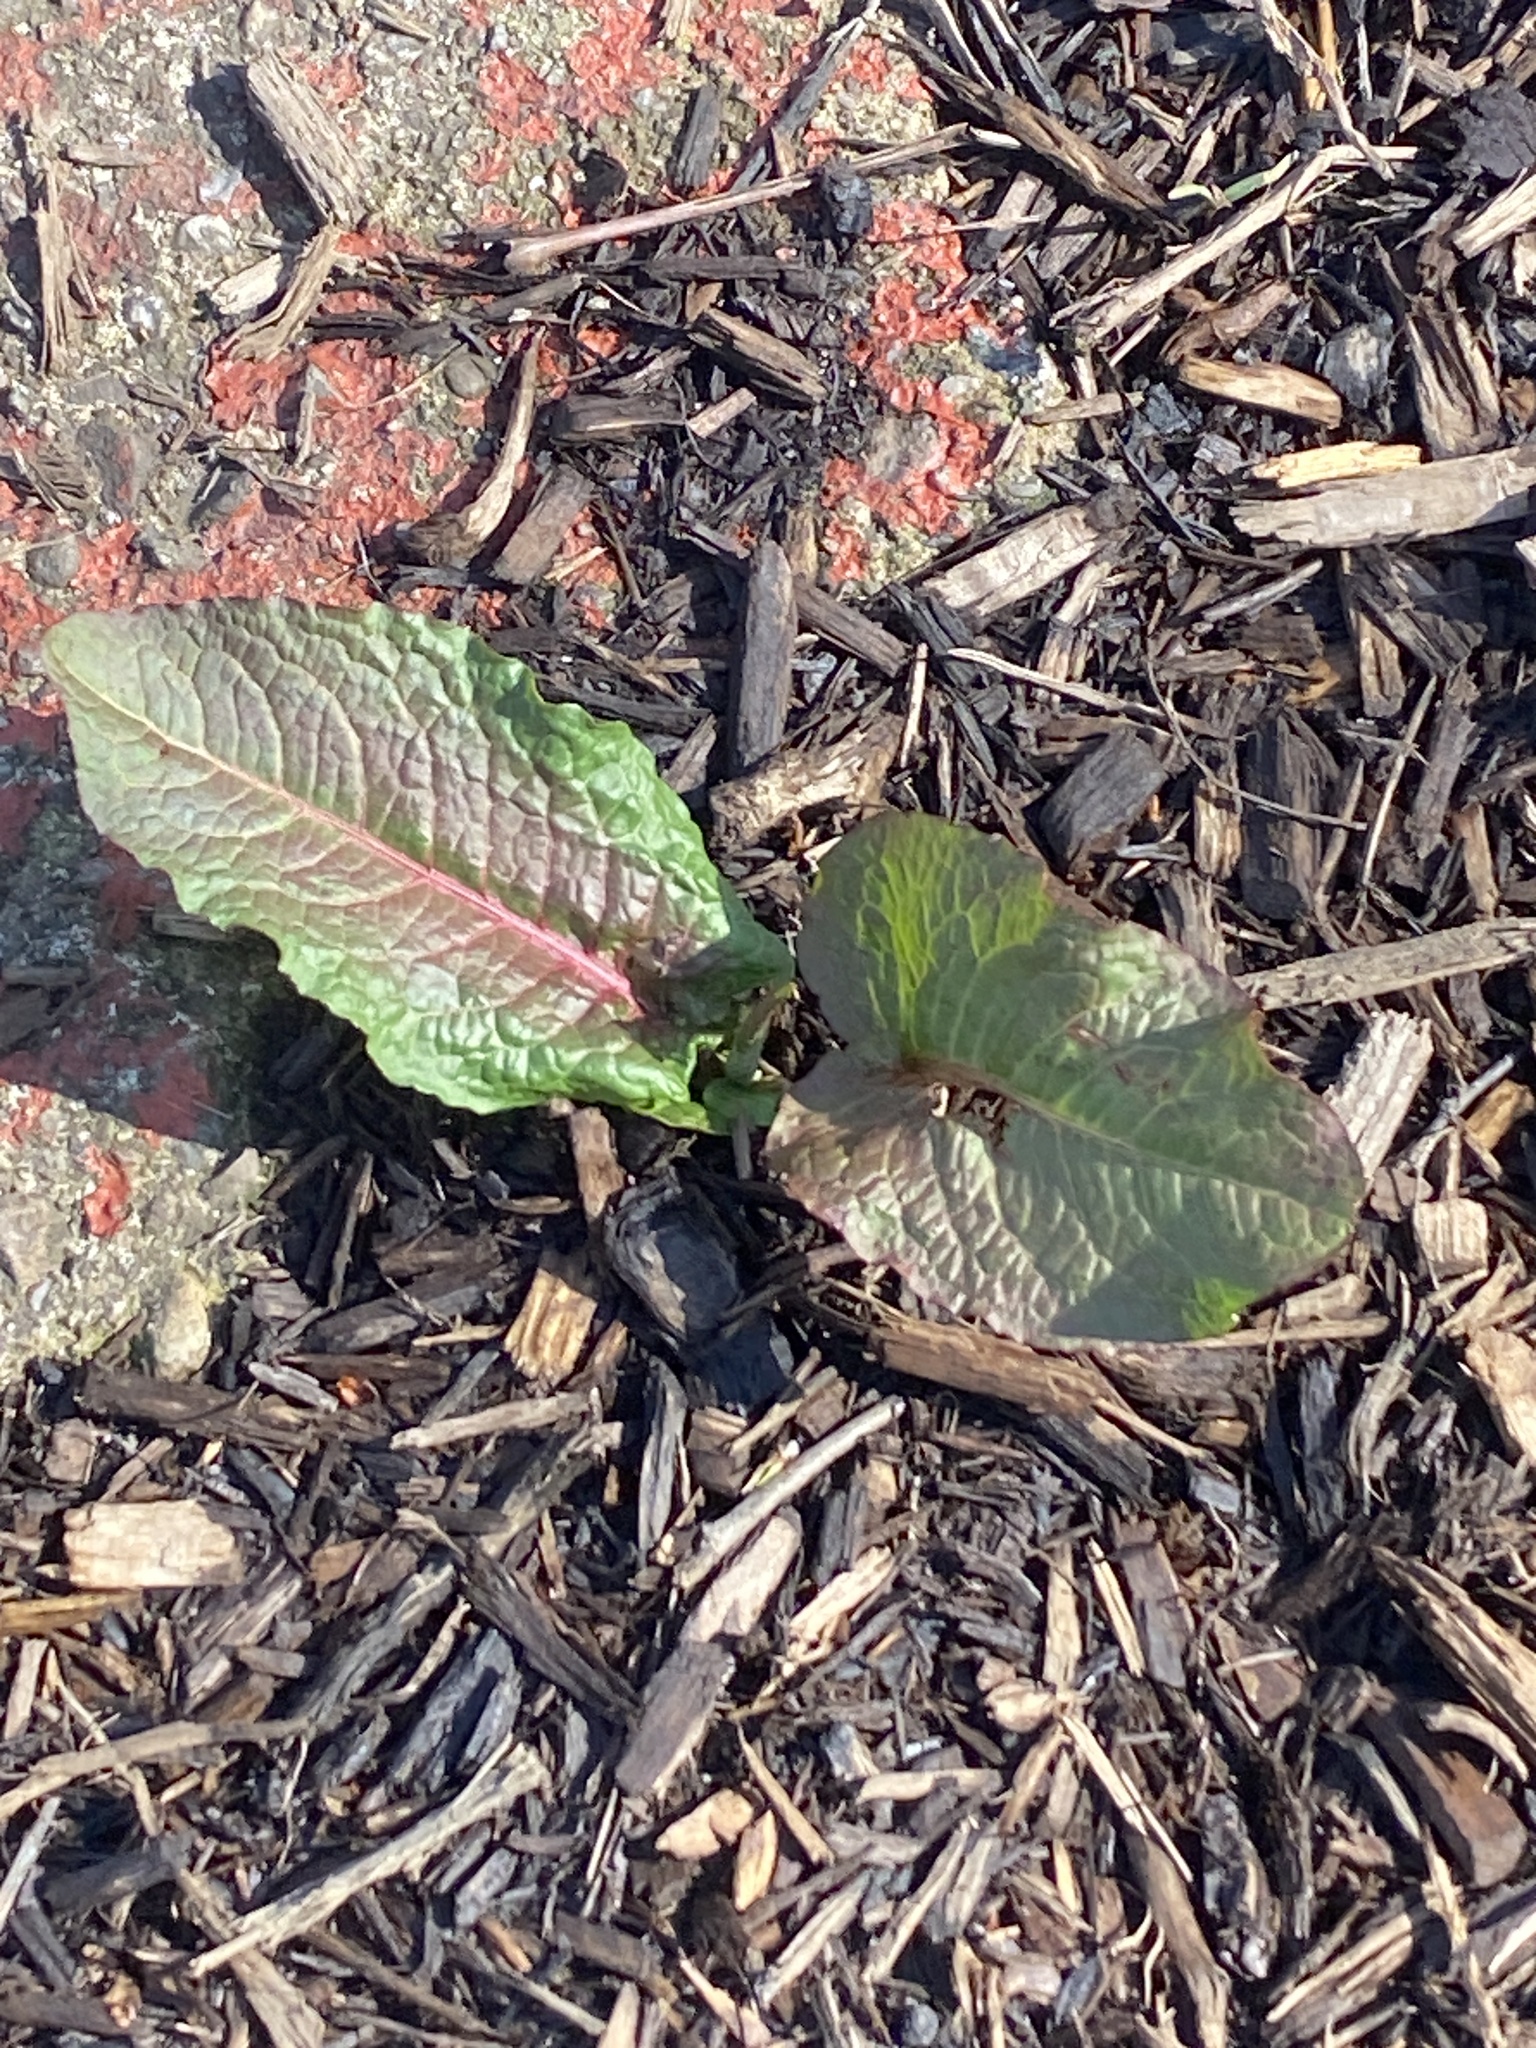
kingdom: Plantae
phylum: Tracheophyta
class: Magnoliopsida
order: Caryophyllales
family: Polygonaceae
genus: Rumex
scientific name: Rumex obtusifolius
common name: Bitter dock
